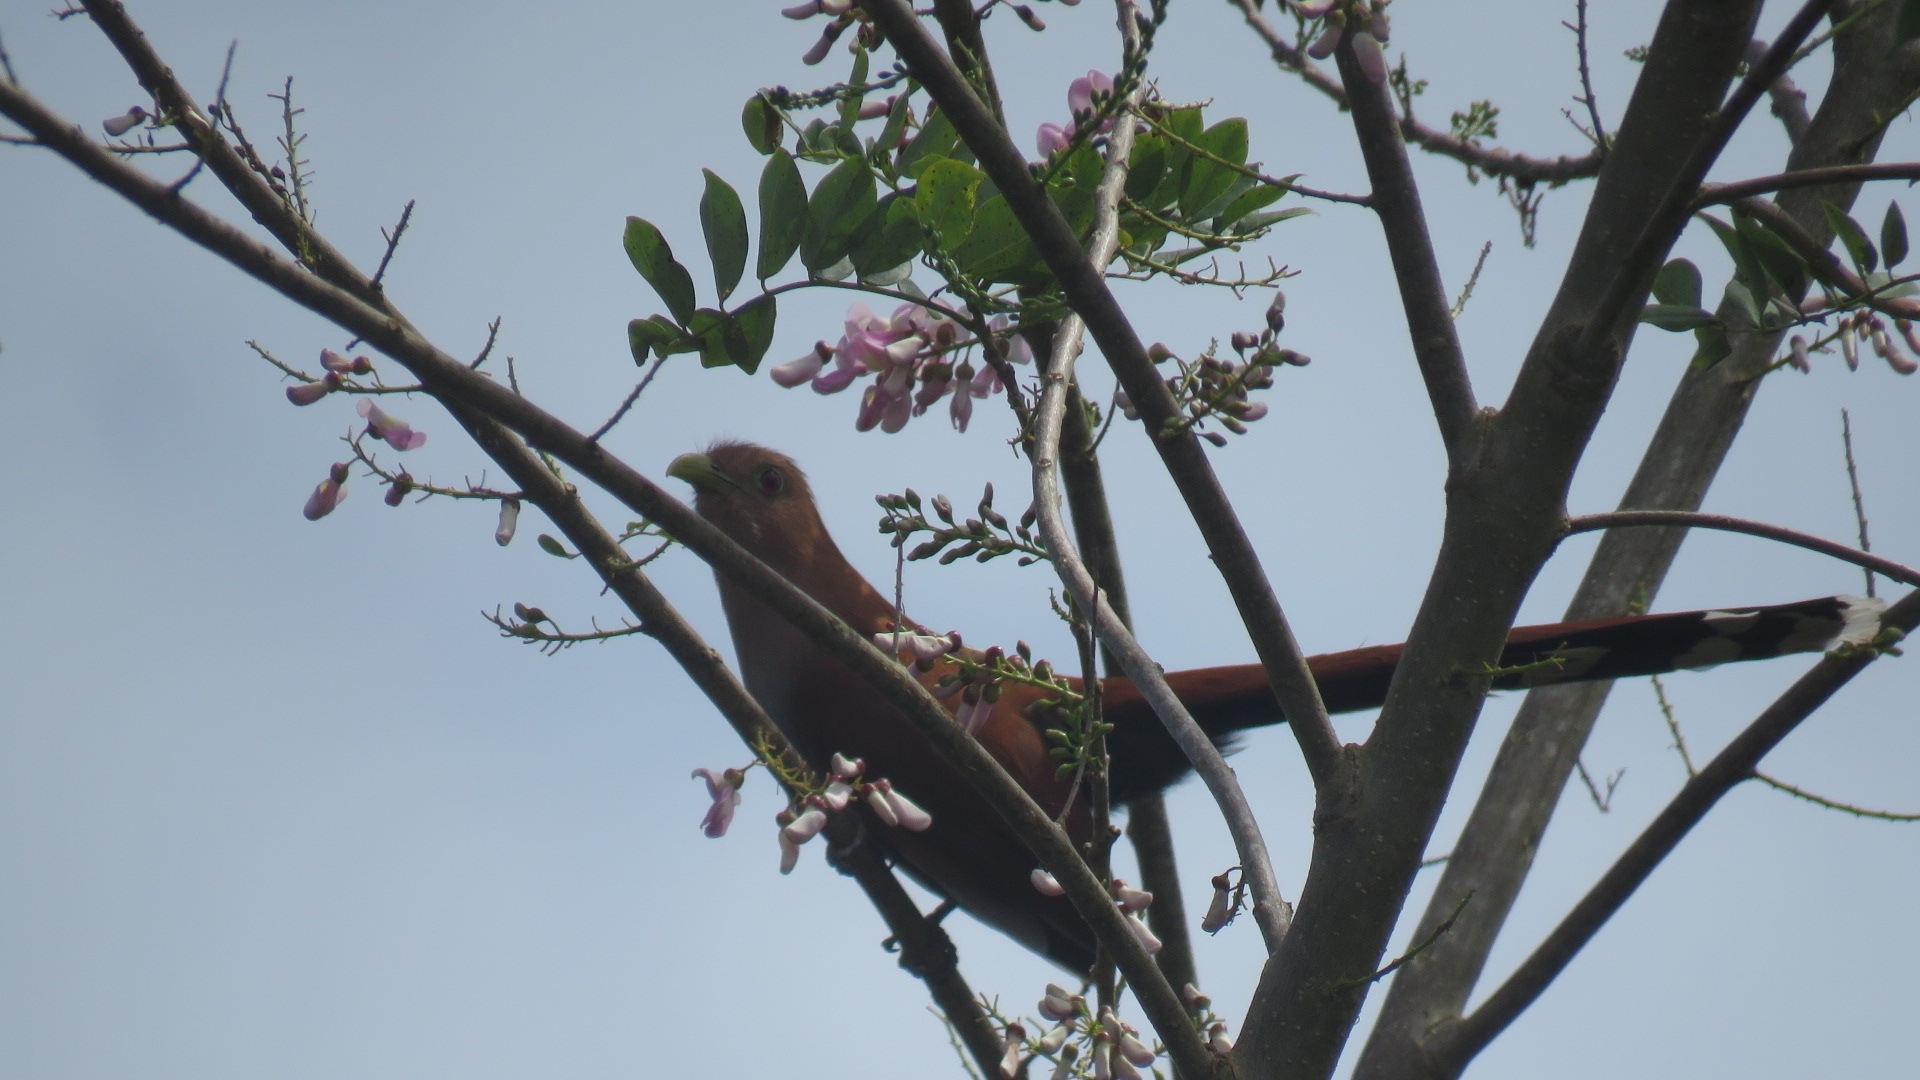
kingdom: Animalia
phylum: Chordata
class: Aves
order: Cuculiformes
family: Cuculidae
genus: Piaya
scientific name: Piaya cayana
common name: Squirrel cuckoo
